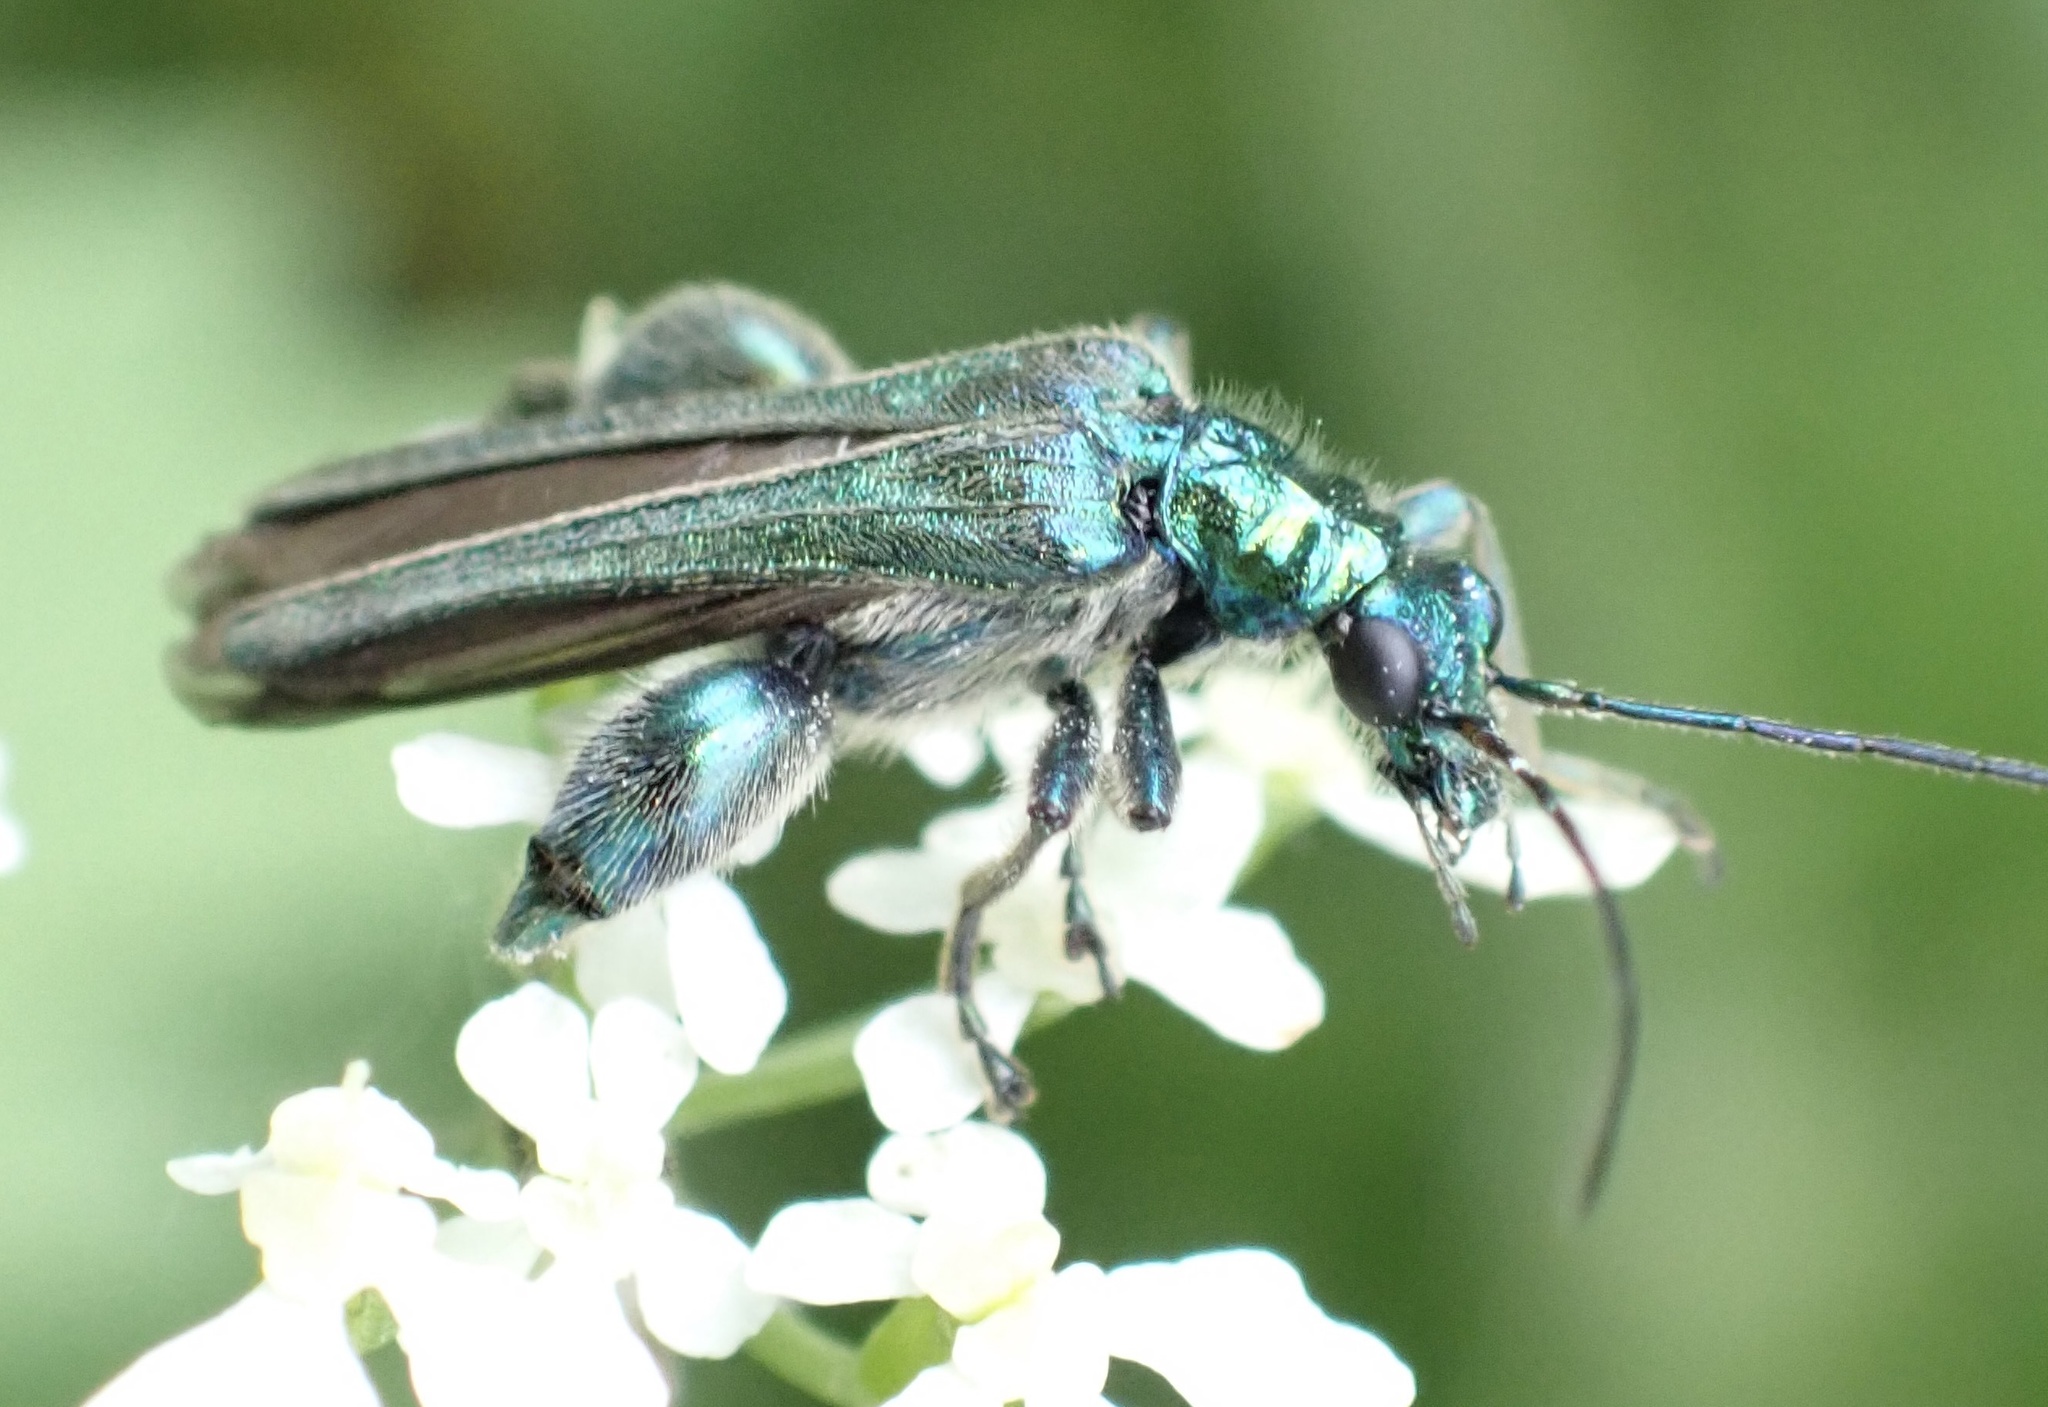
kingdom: Animalia
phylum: Arthropoda
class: Insecta
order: Coleoptera
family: Oedemeridae
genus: Oedemera
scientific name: Oedemera nobilis
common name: Swollen-thighed beetle
